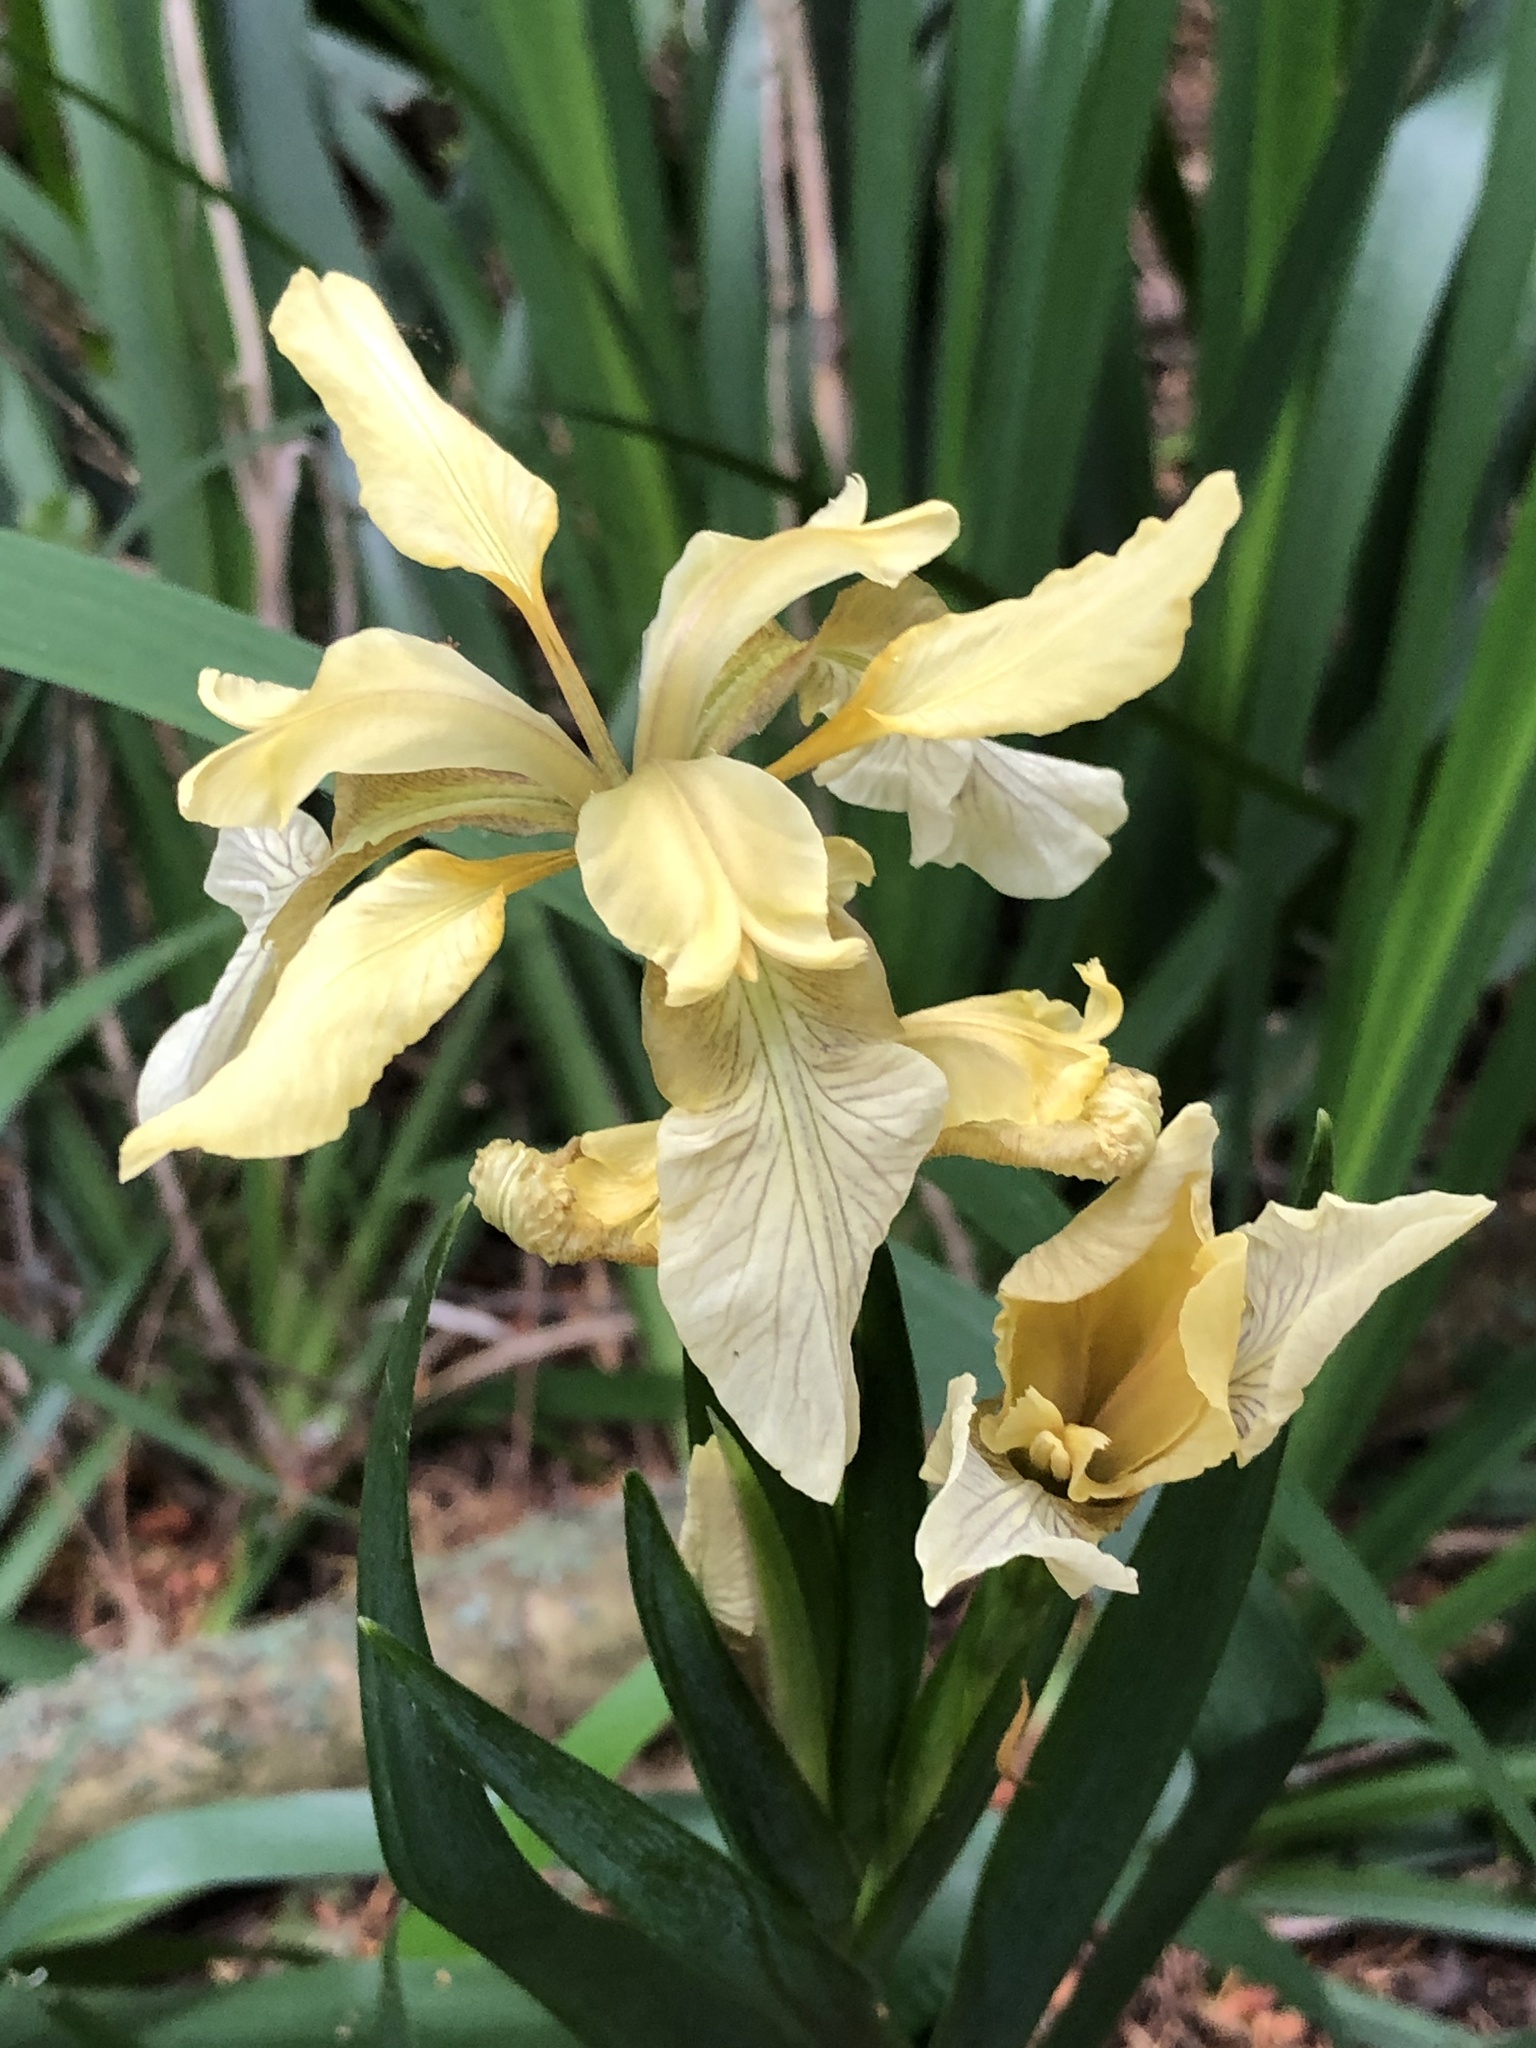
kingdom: Plantae
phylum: Tracheophyta
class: Liliopsida
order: Asparagales
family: Iridaceae
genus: Iris
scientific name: Iris foetidissima
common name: Stinking iris
